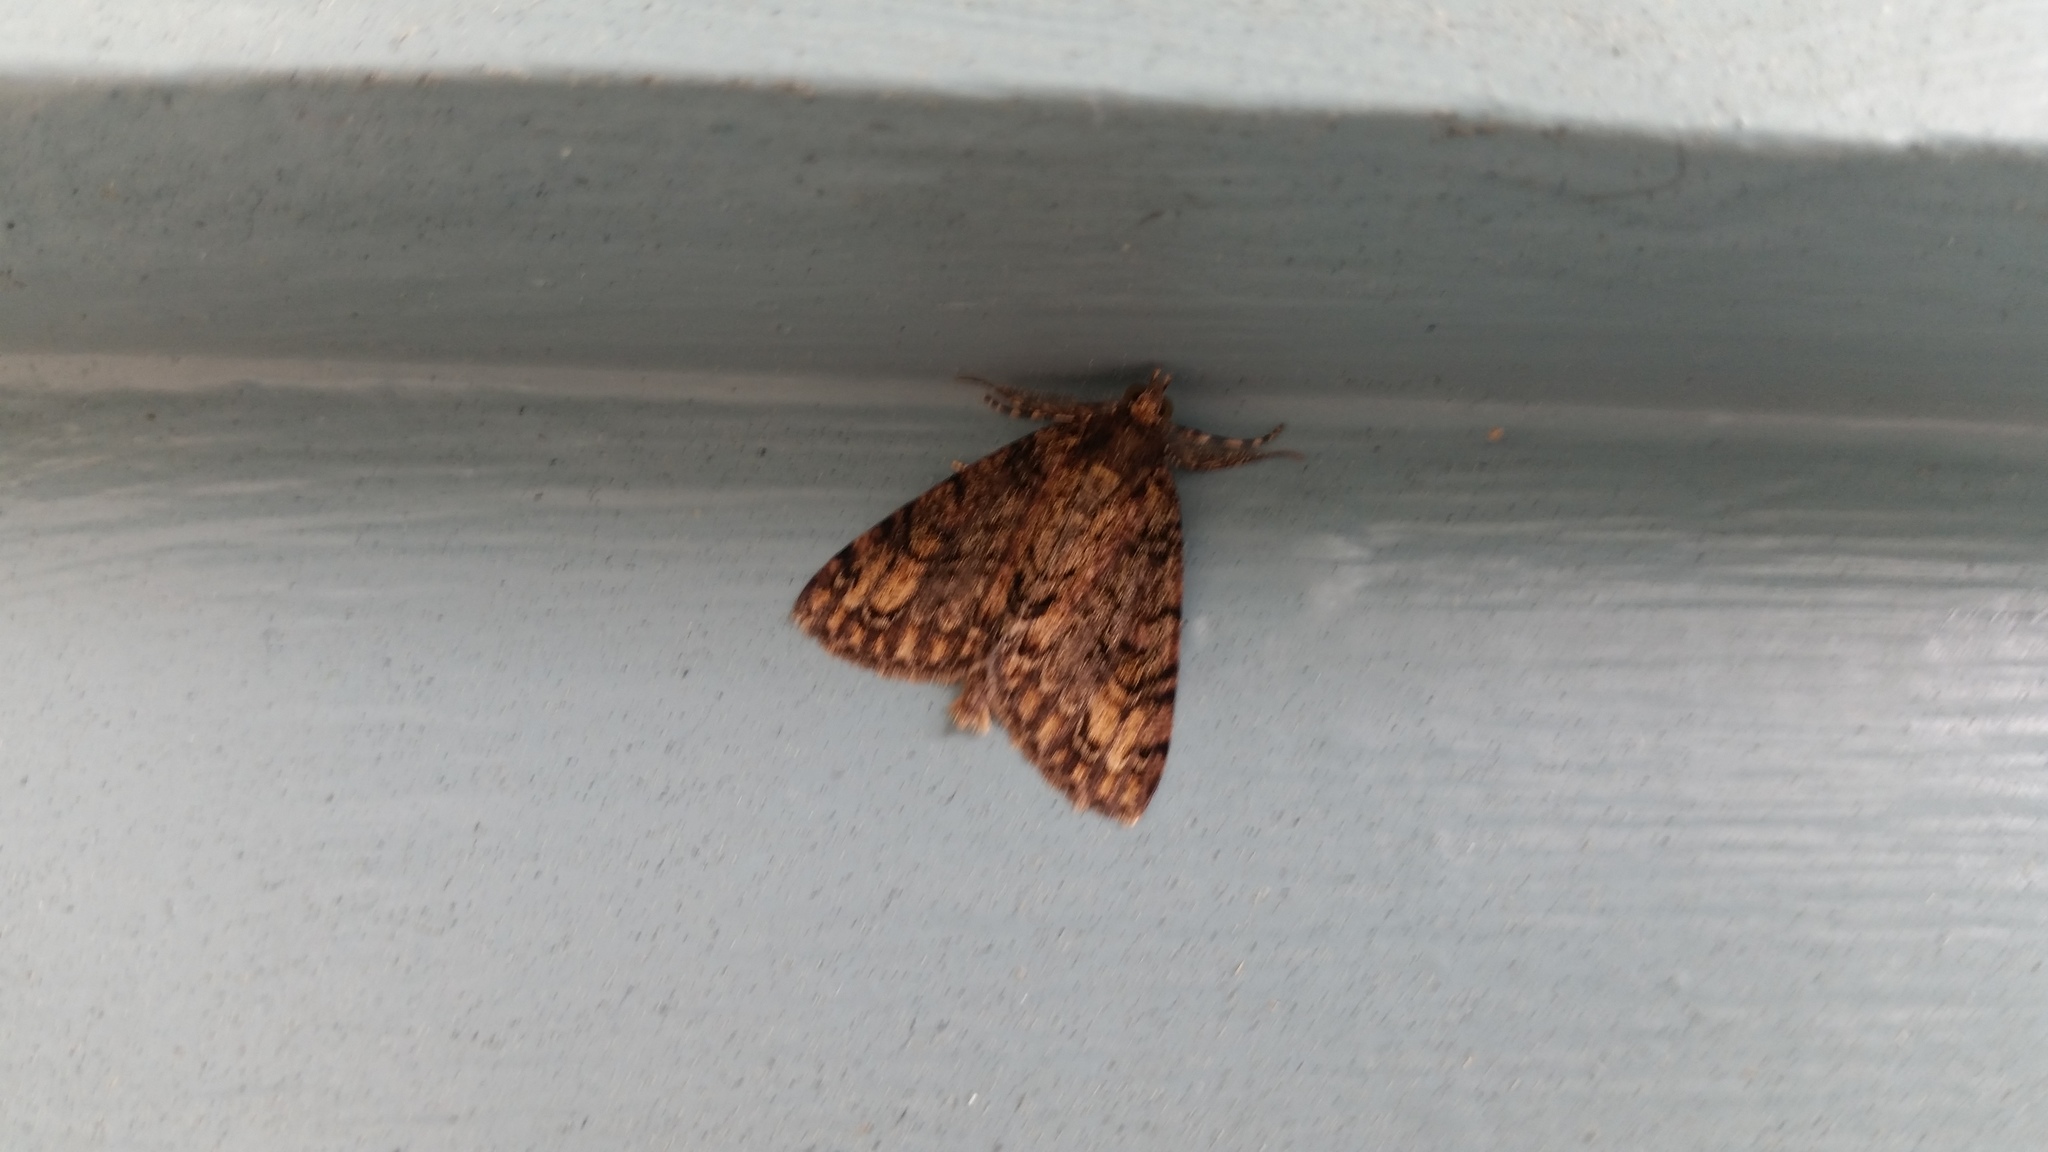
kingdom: Animalia
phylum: Arthropoda
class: Insecta
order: Lepidoptera
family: Geometridae
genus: Pseudocoremia
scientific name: Pseudocoremia suavis
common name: Common forest looper
